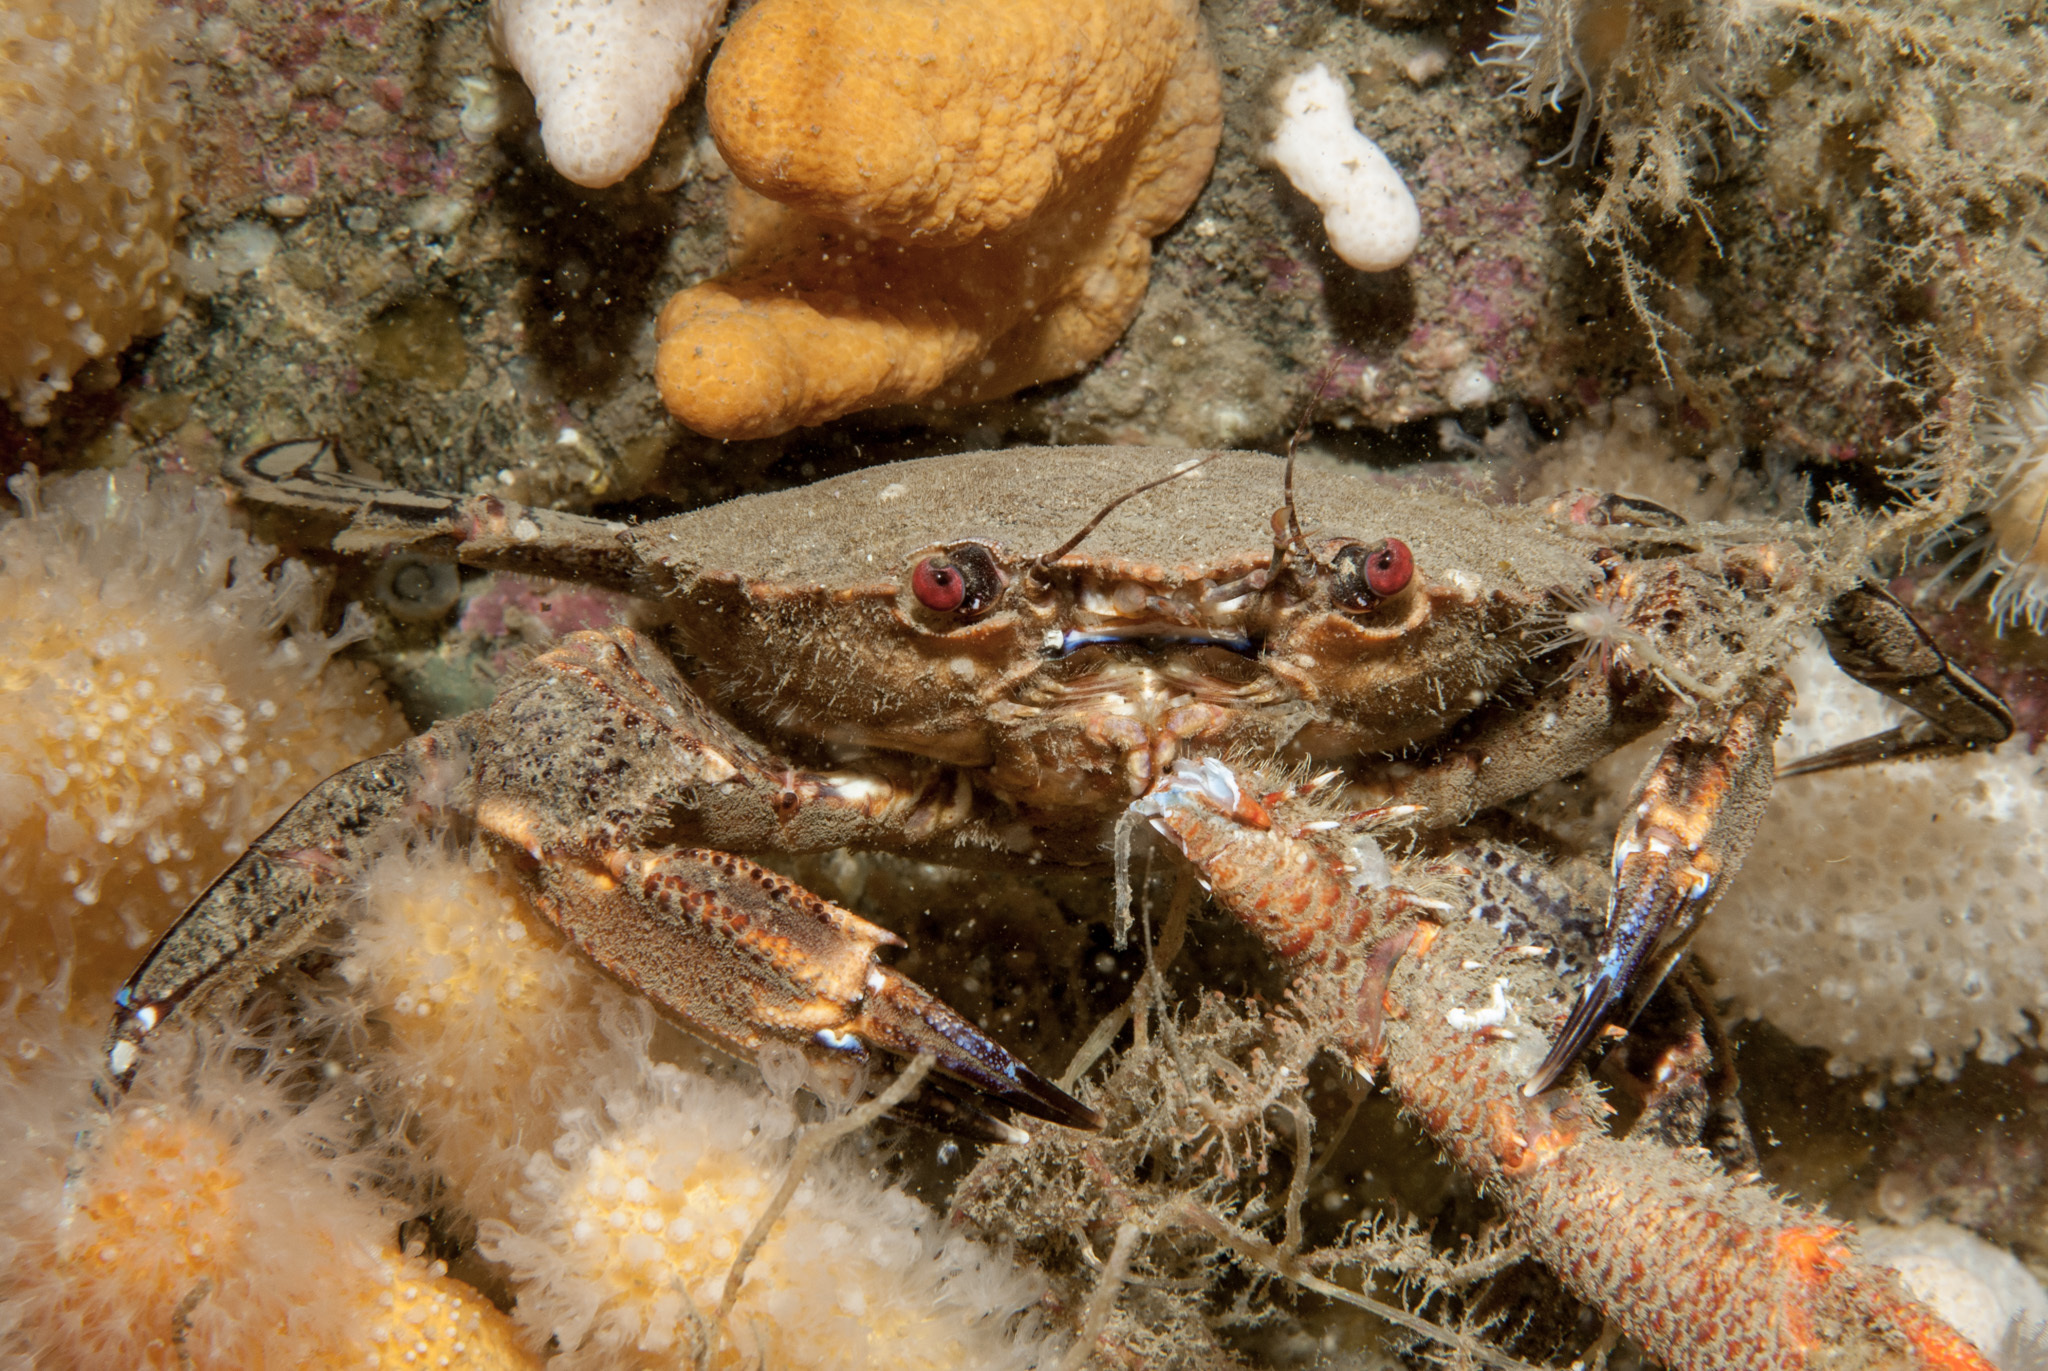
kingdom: Animalia
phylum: Arthropoda
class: Malacostraca
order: Decapoda
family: Polybiidae
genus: Necora
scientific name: Necora puber
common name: Velvet swimming crab
